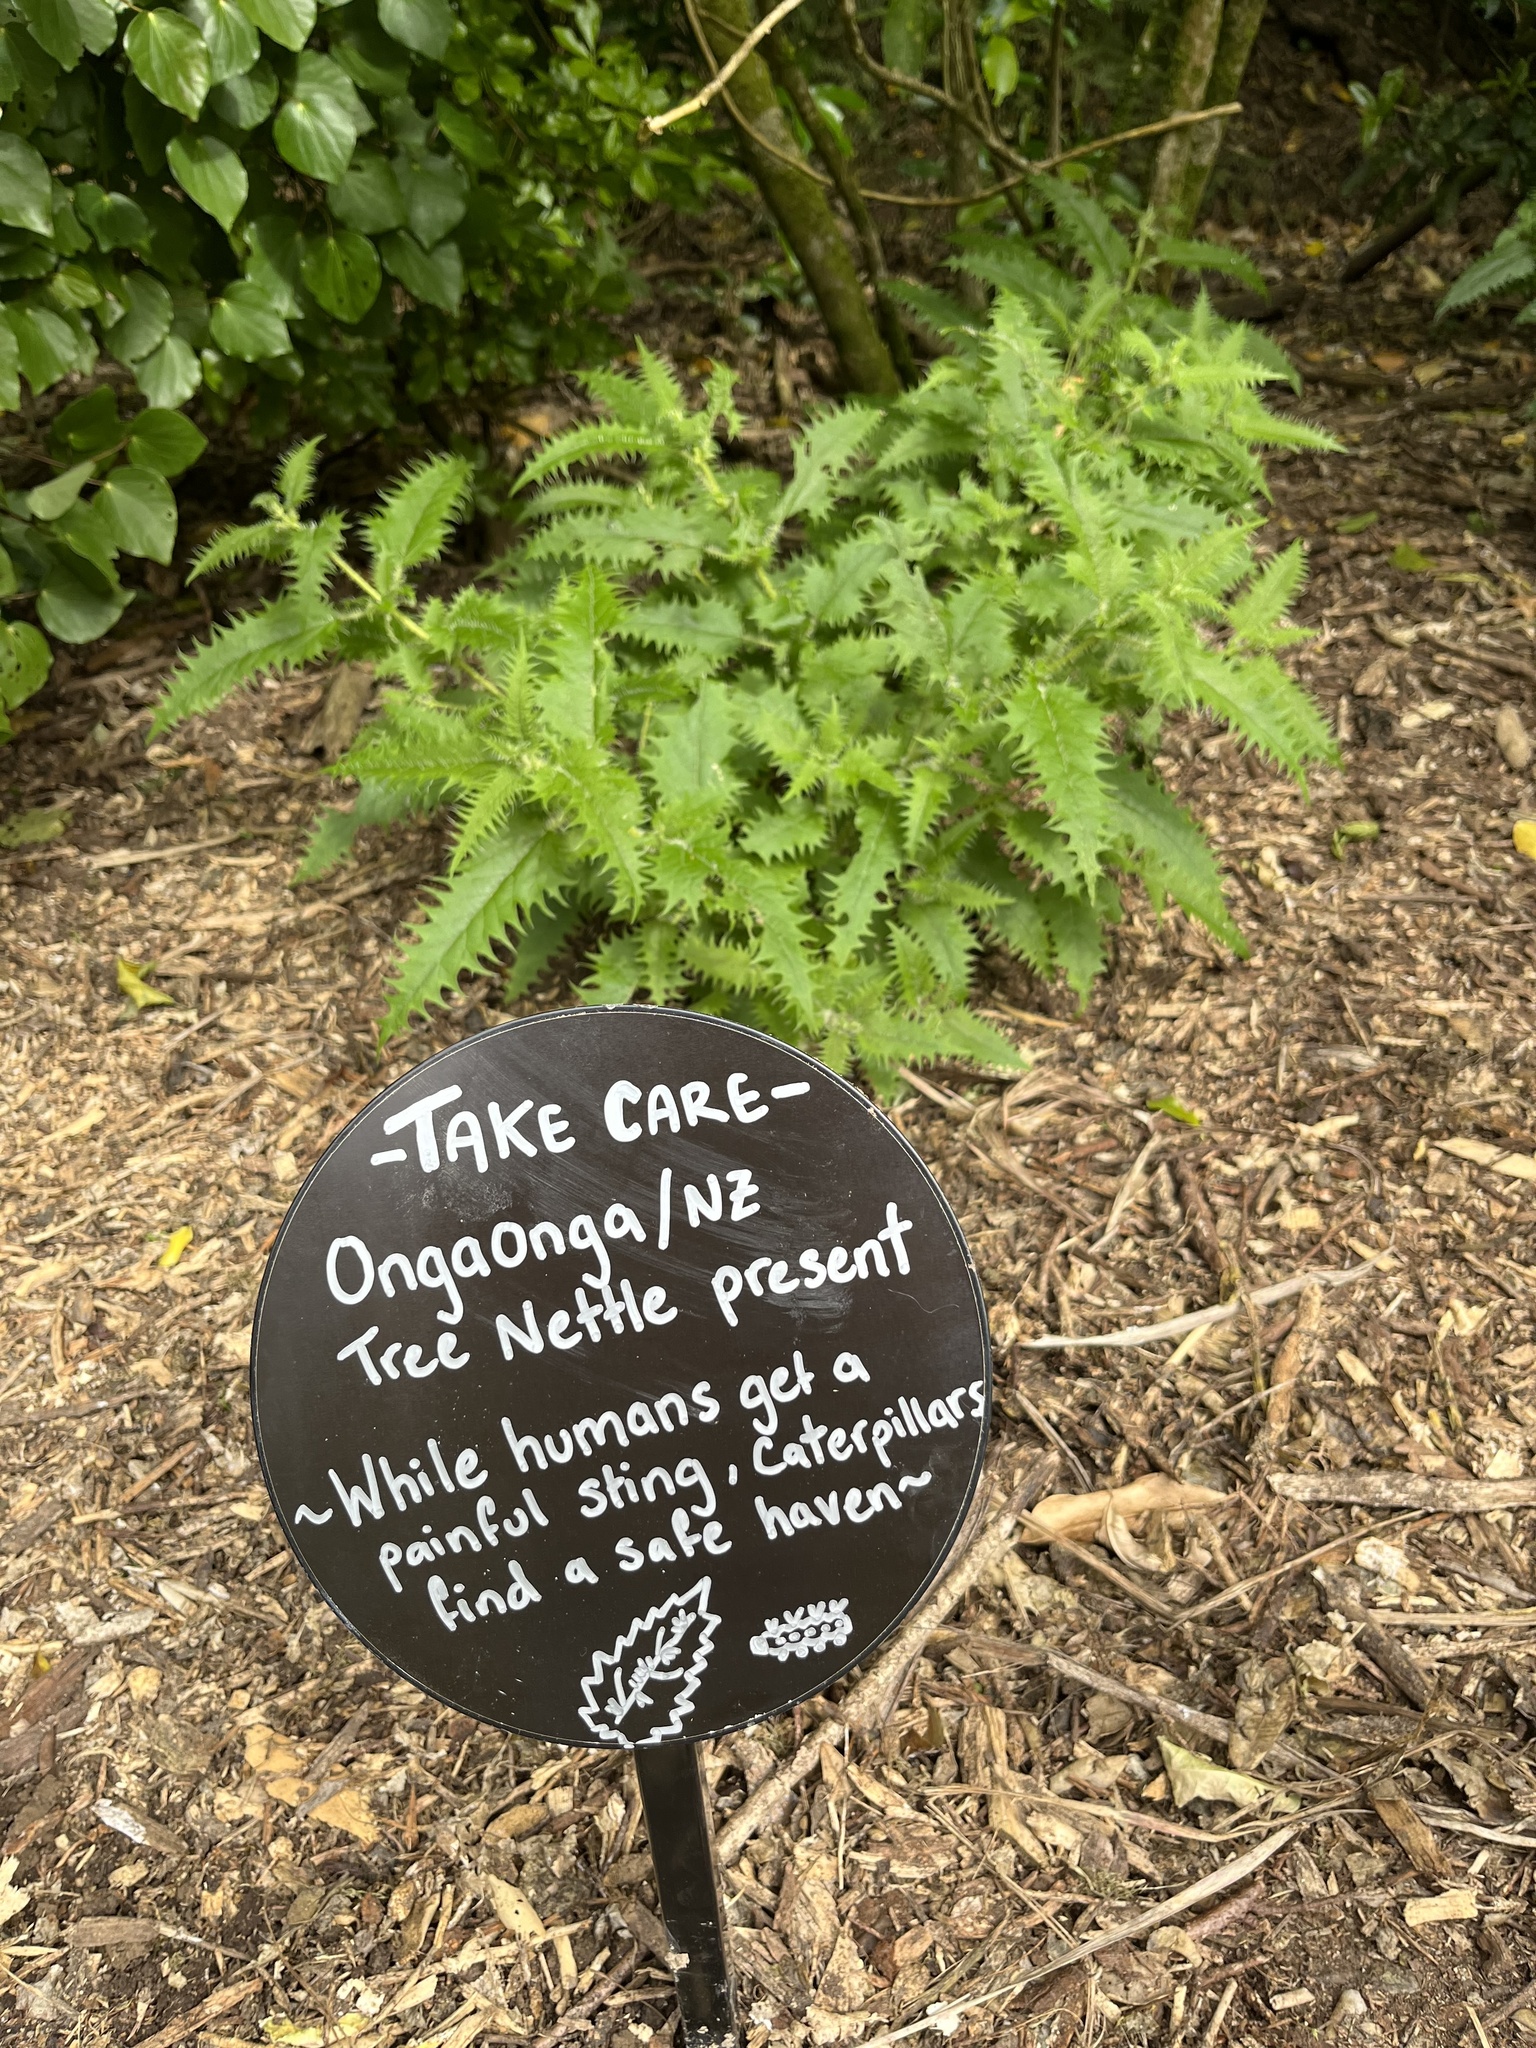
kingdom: Plantae
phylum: Tracheophyta
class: Magnoliopsida
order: Rosales
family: Urticaceae
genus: Urtica
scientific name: Urtica ferox
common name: Tree nettle
